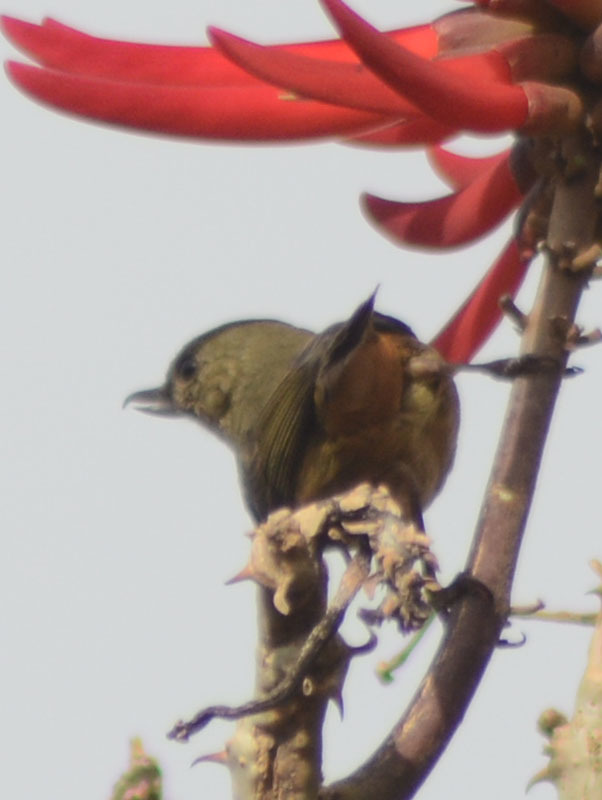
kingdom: Animalia
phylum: Chordata
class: Aves
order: Passeriformes
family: Thraupidae
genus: Diglossa
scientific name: Diglossa baritula
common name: Cinnamon-bellied flowerpiercer
